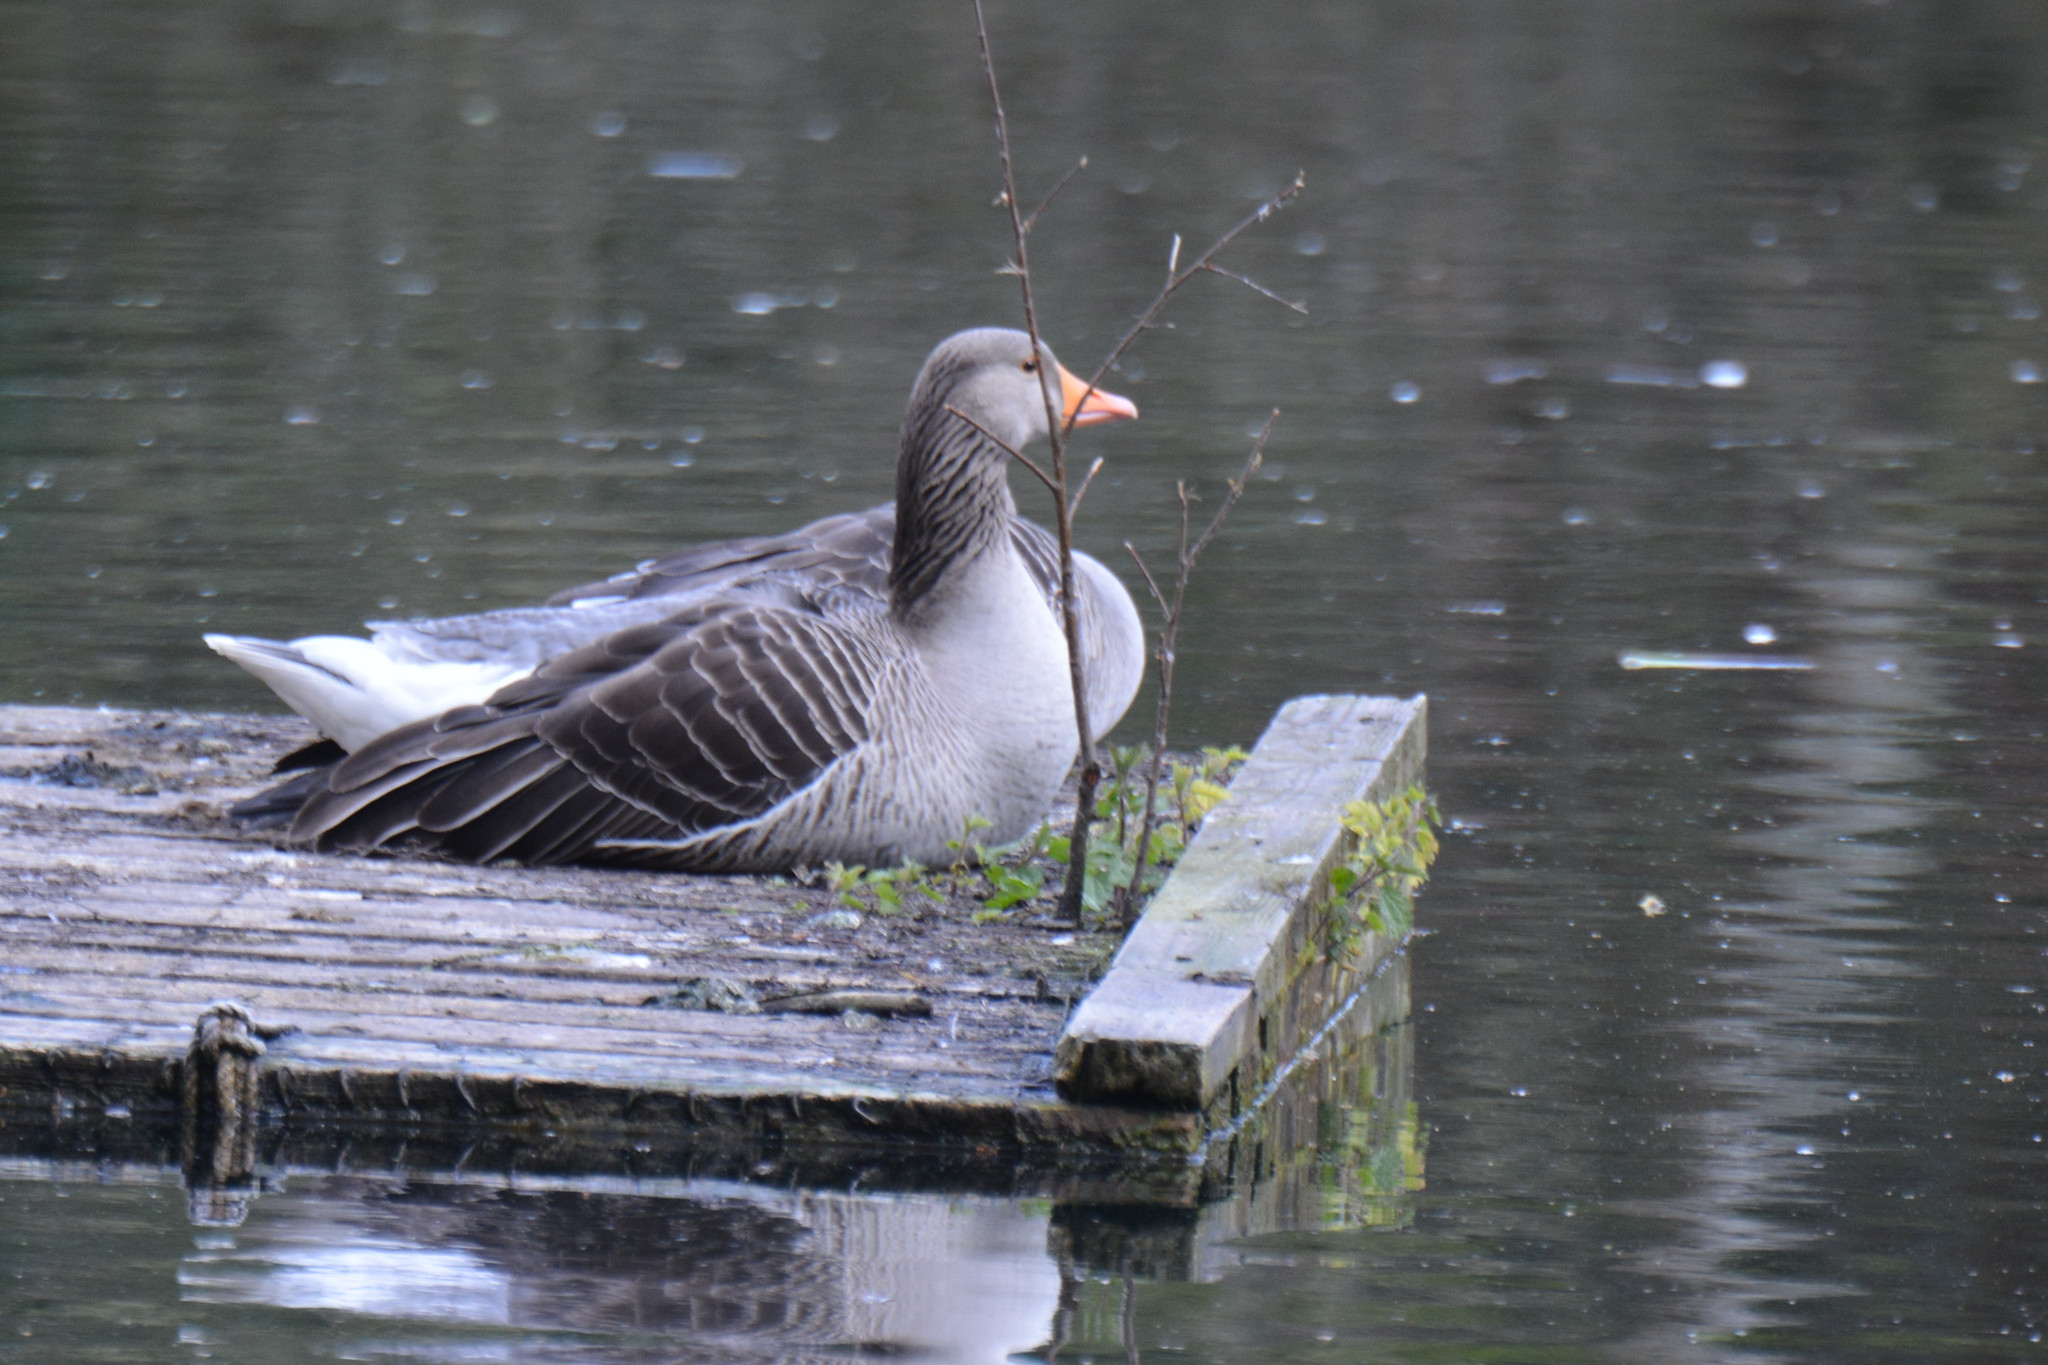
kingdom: Animalia
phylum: Chordata
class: Aves
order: Anseriformes
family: Anatidae
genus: Anser
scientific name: Anser anser
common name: Greylag goose
